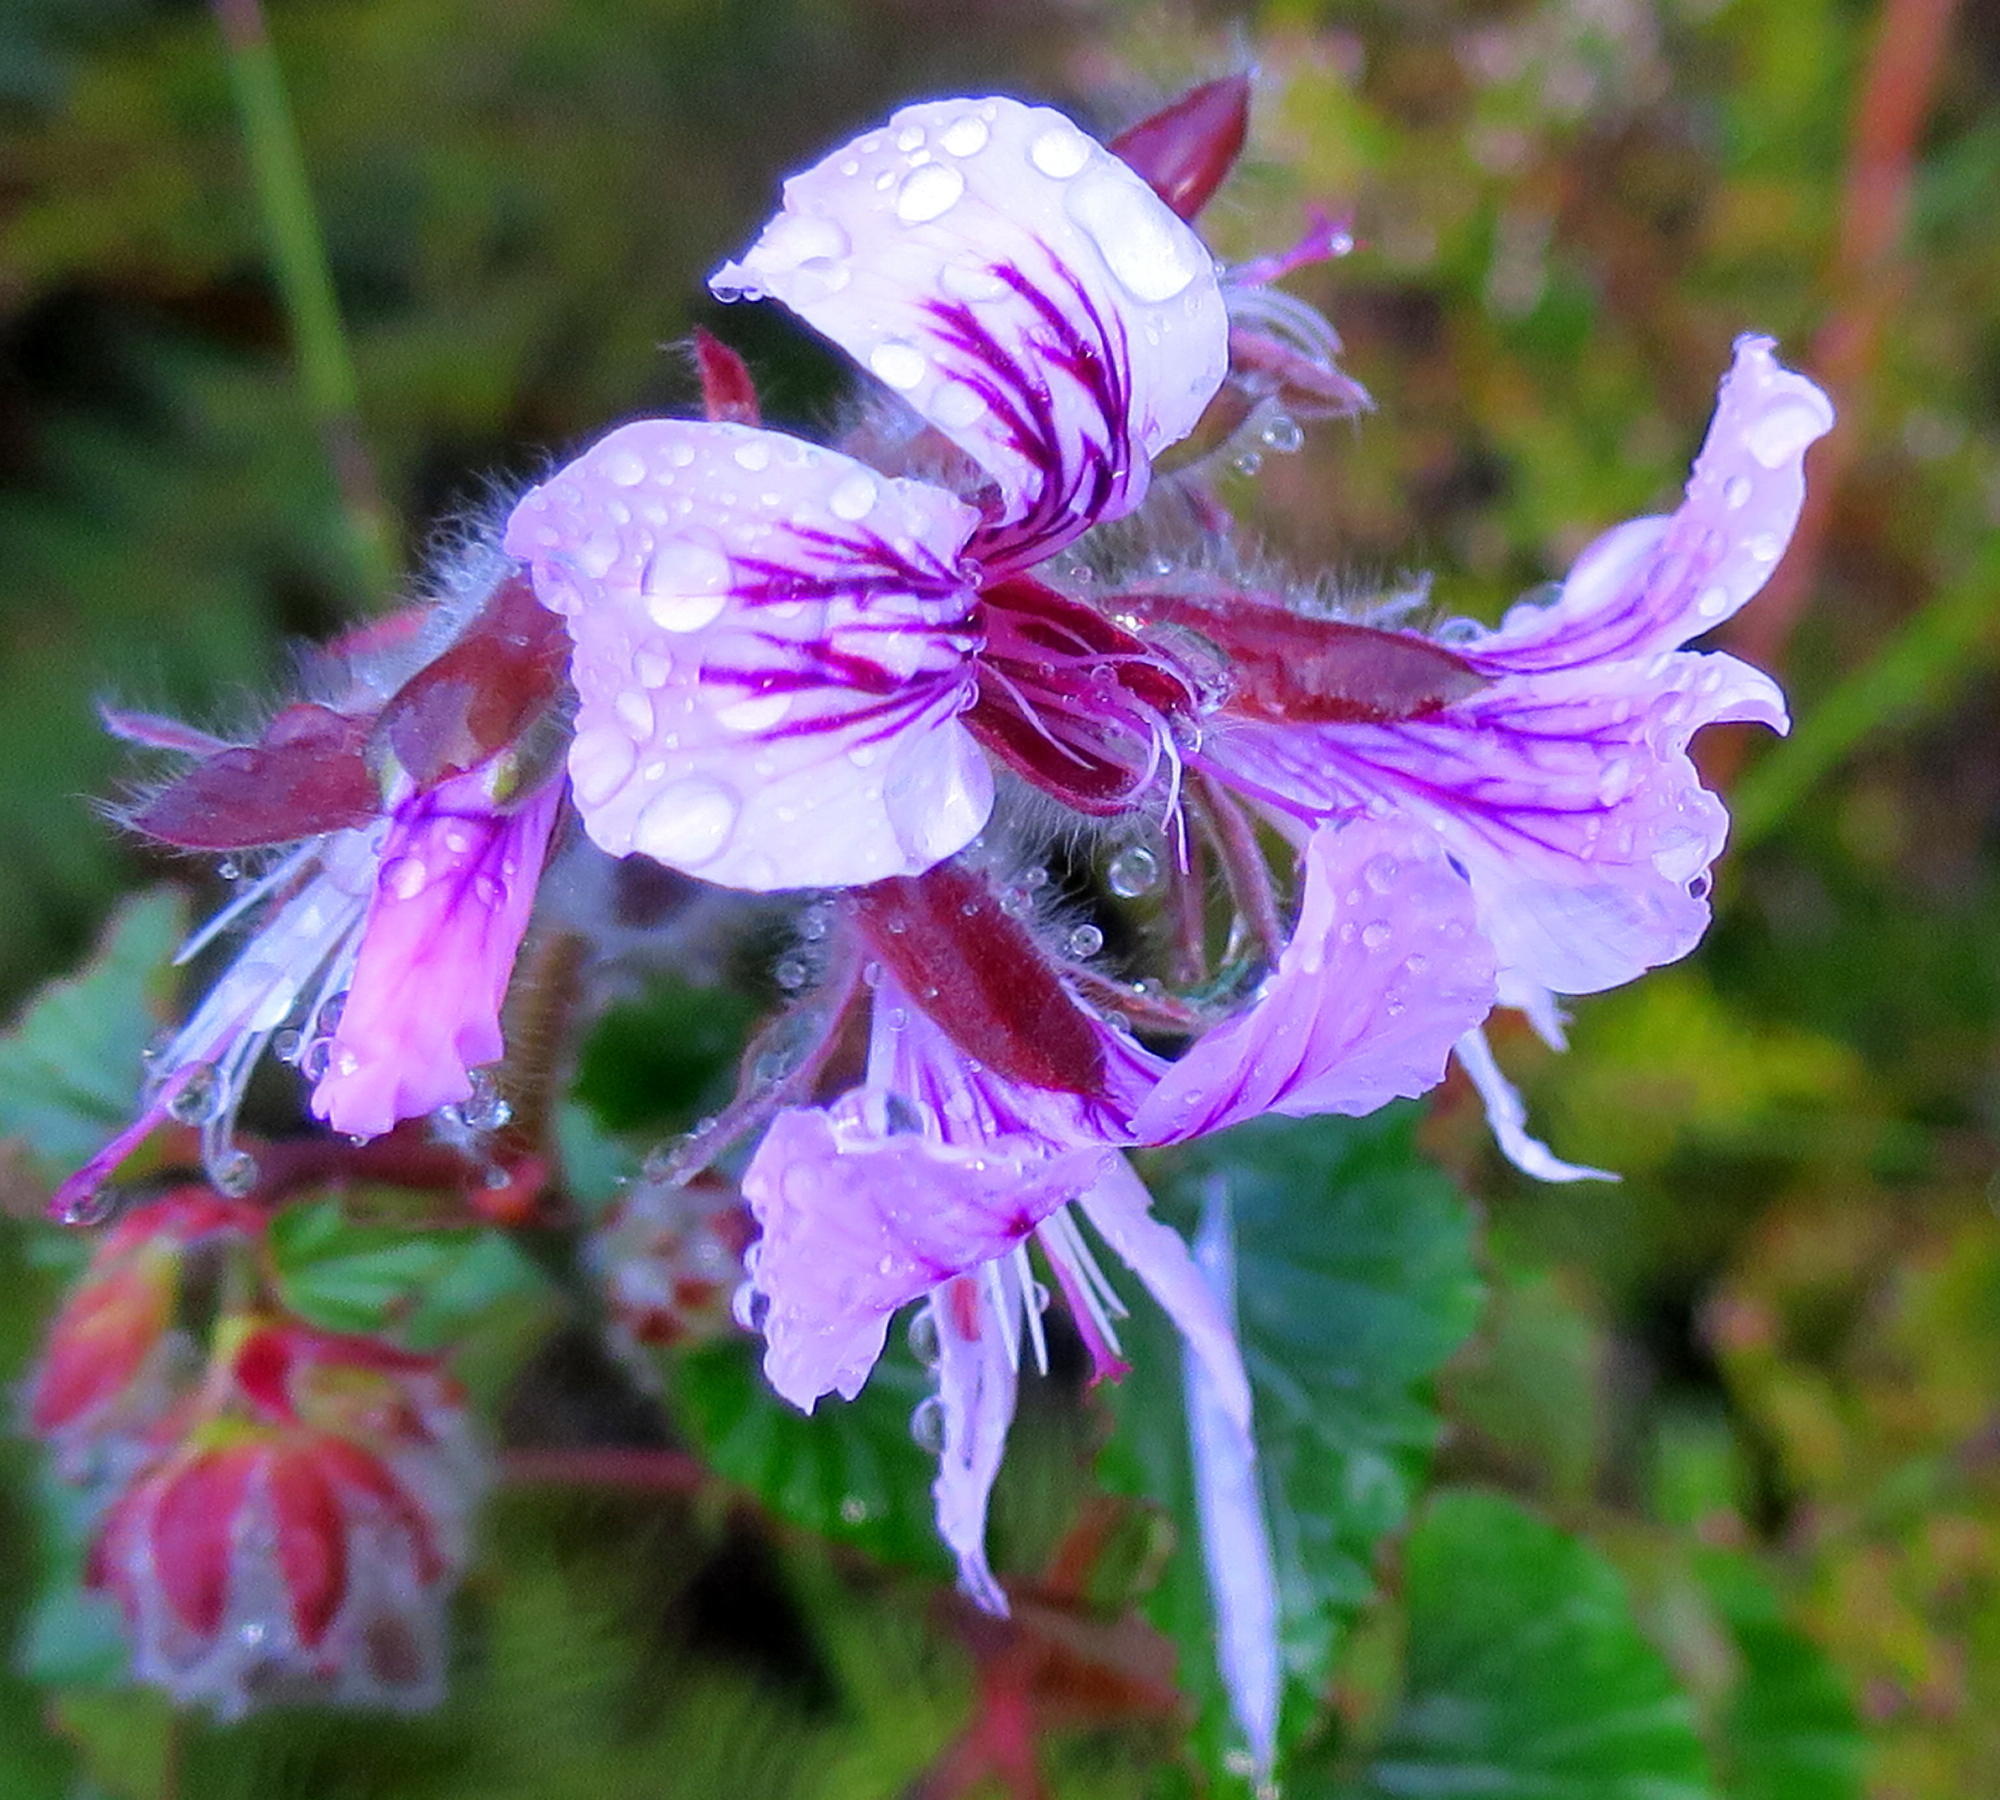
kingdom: Plantae
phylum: Tracheophyta
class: Magnoliopsida
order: Geraniales
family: Geraniaceae
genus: Pelargonium
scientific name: Pelargonium cordifolium
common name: Heart-leaf pelargonium
